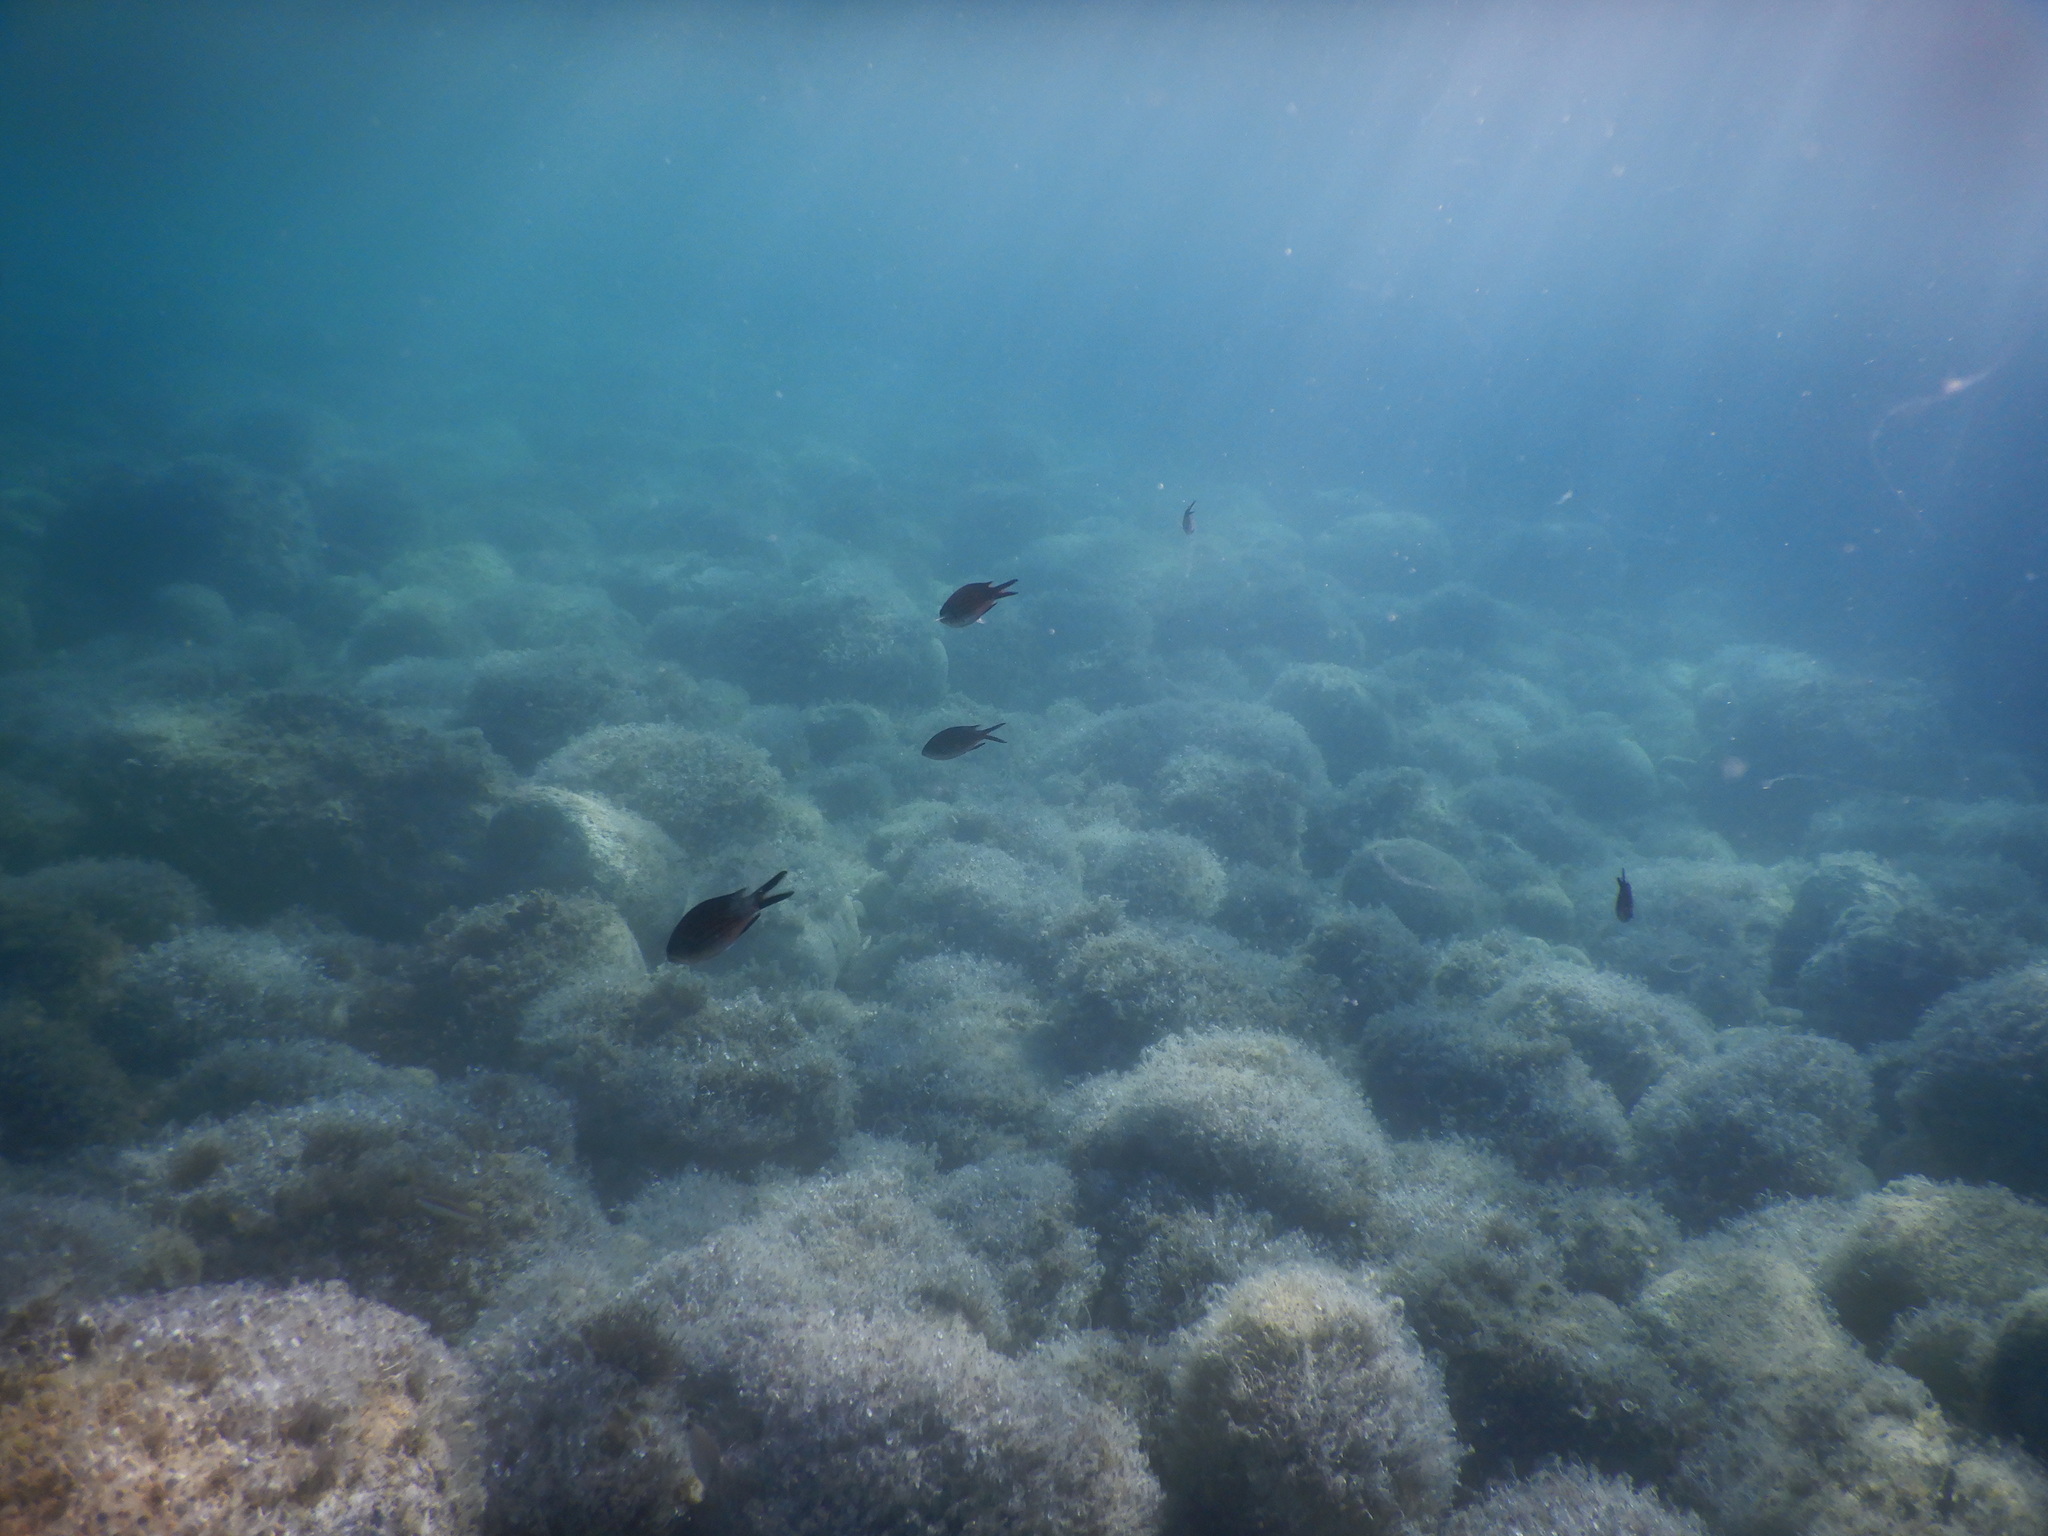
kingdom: Animalia
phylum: Chordata
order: Perciformes
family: Pomacentridae
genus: Chromis
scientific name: Chromis chromis
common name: Damselfish
